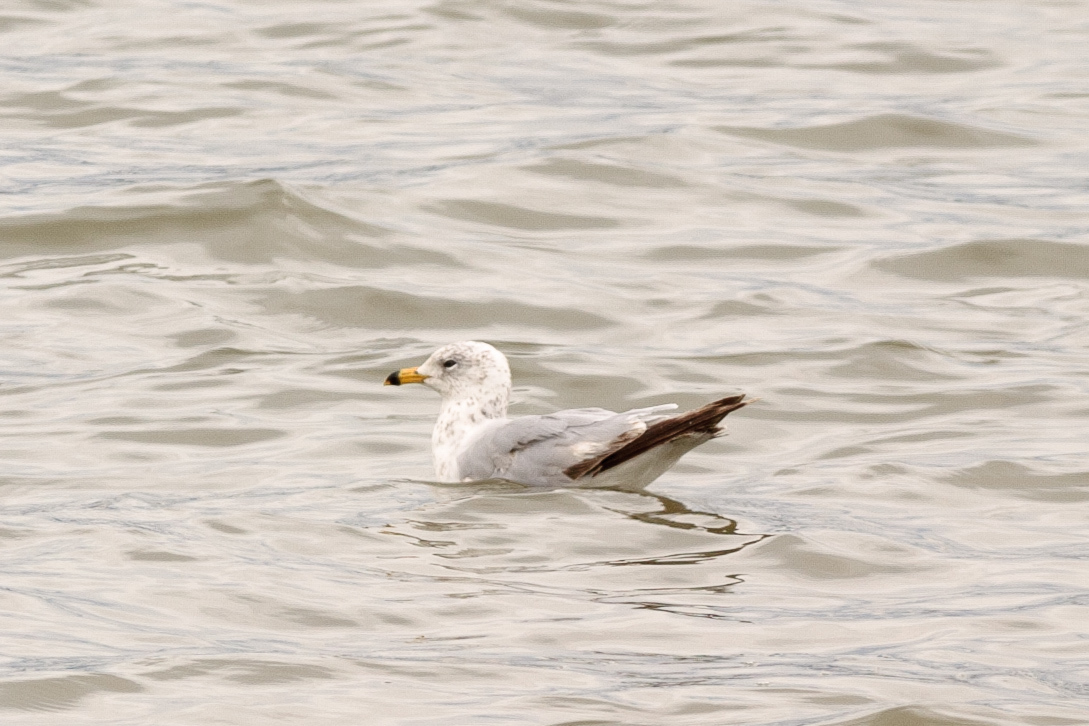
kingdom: Animalia
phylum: Chordata
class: Aves
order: Charadriiformes
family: Laridae
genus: Larus
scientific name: Larus delawarensis
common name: Ring-billed gull
